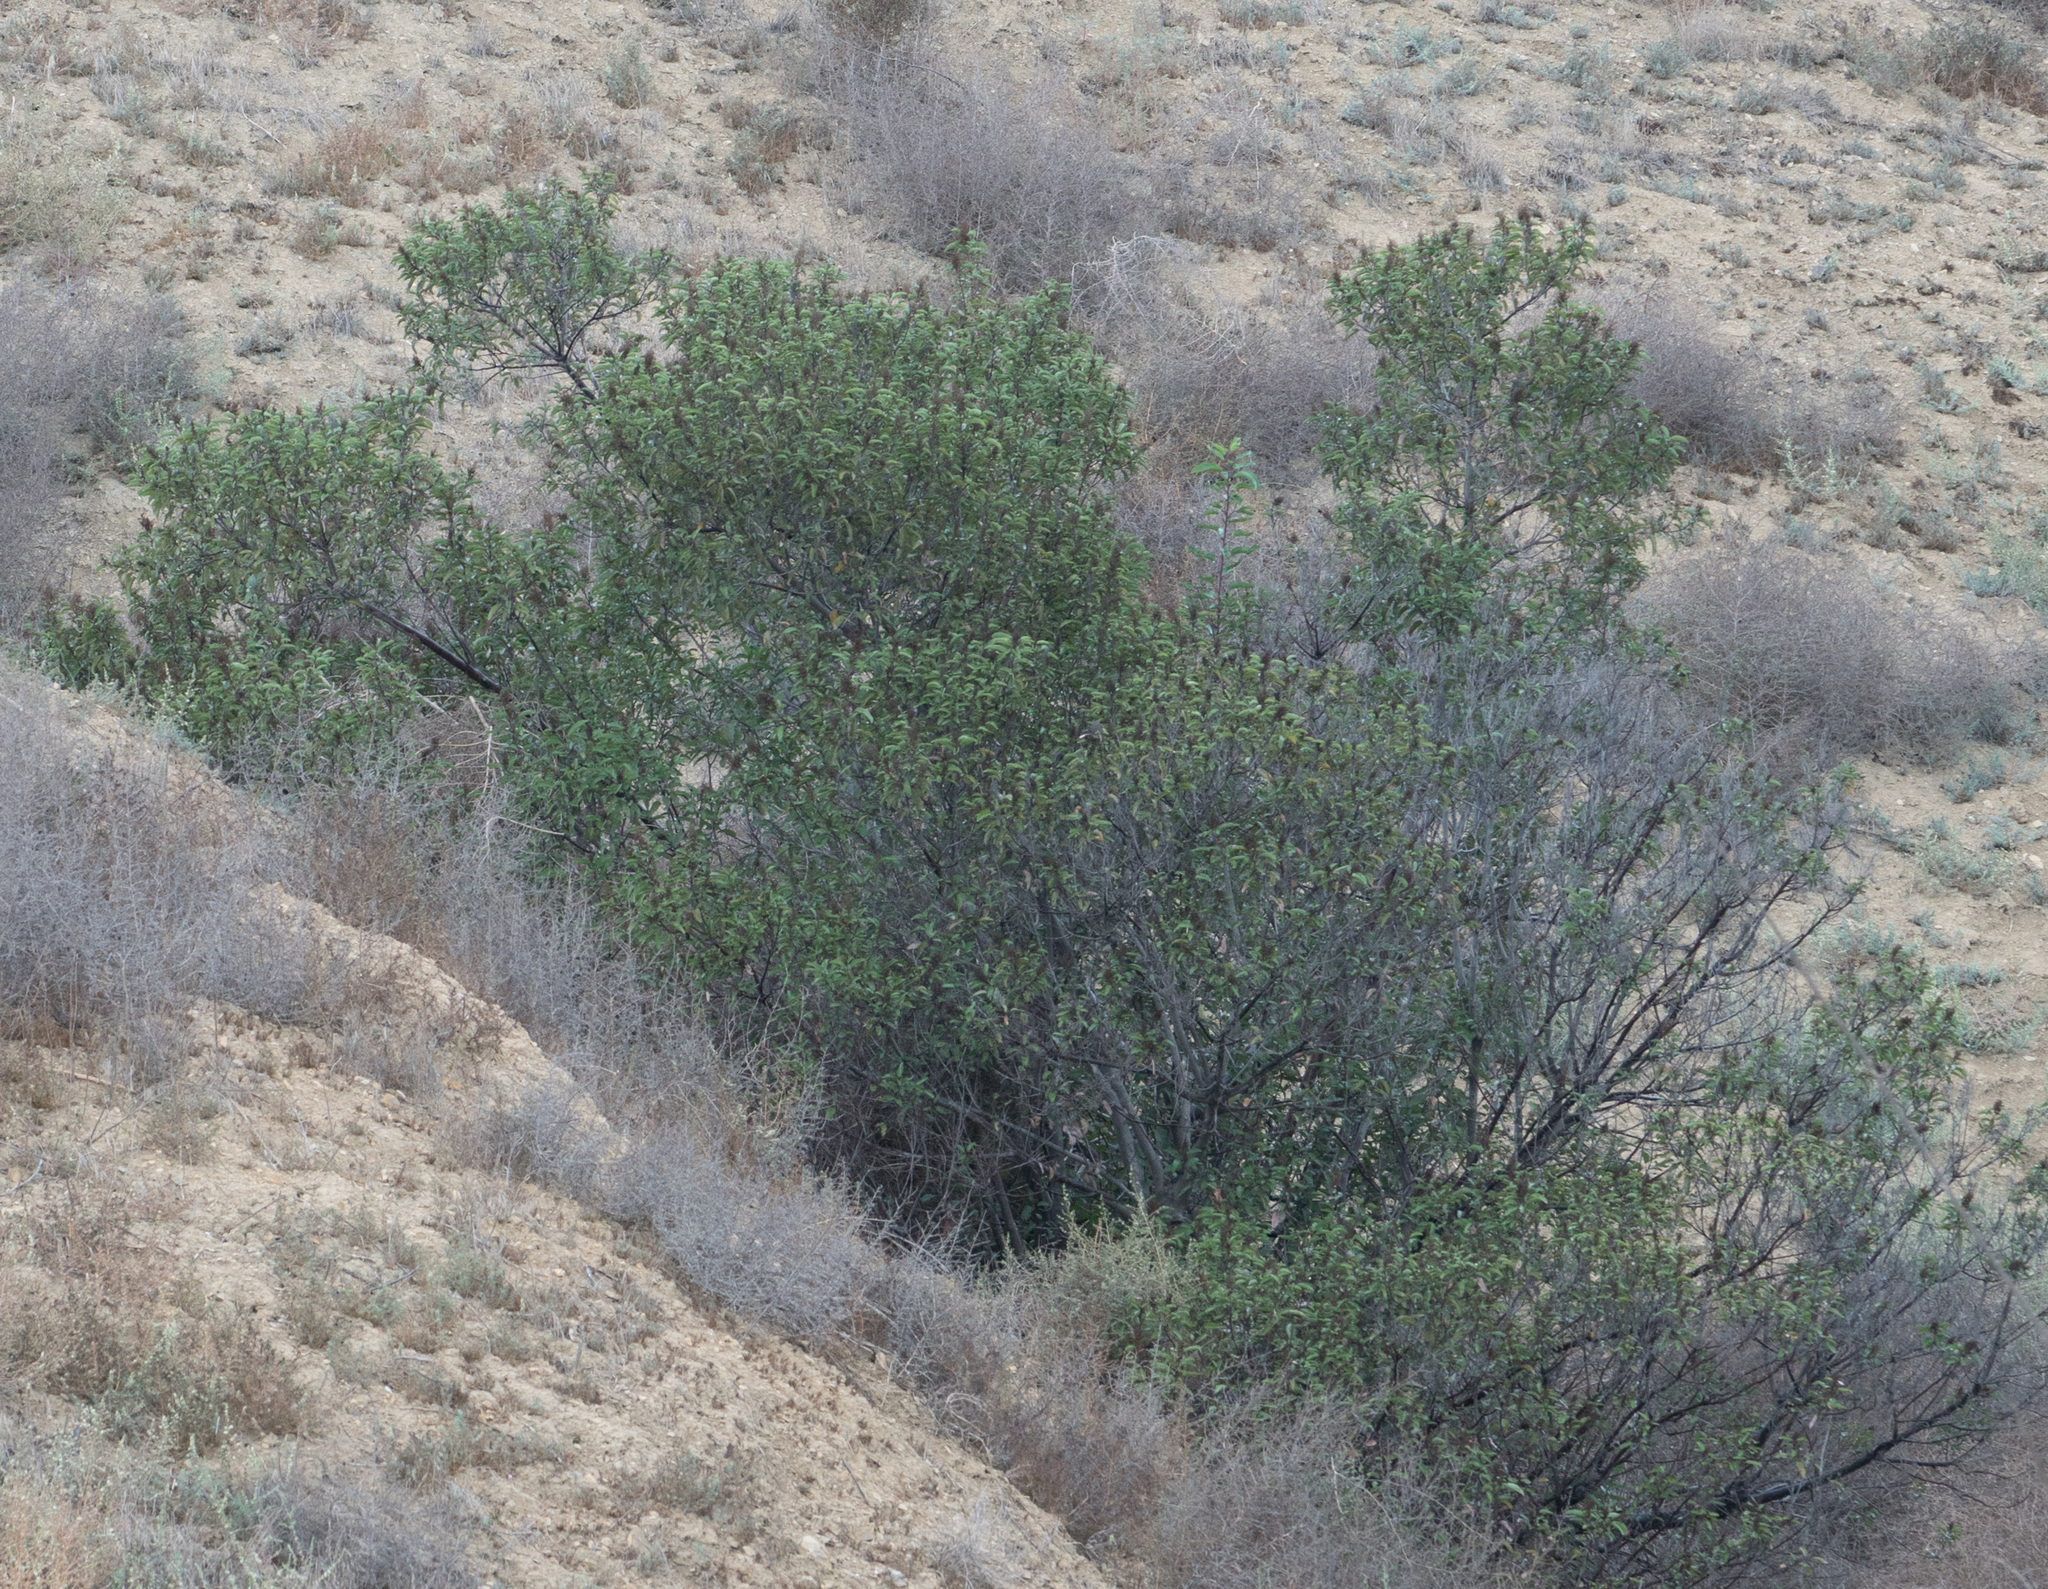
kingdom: Plantae
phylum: Tracheophyta
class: Magnoliopsida
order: Sapindales
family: Anacardiaceae
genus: Malosma
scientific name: Malosma laurina
